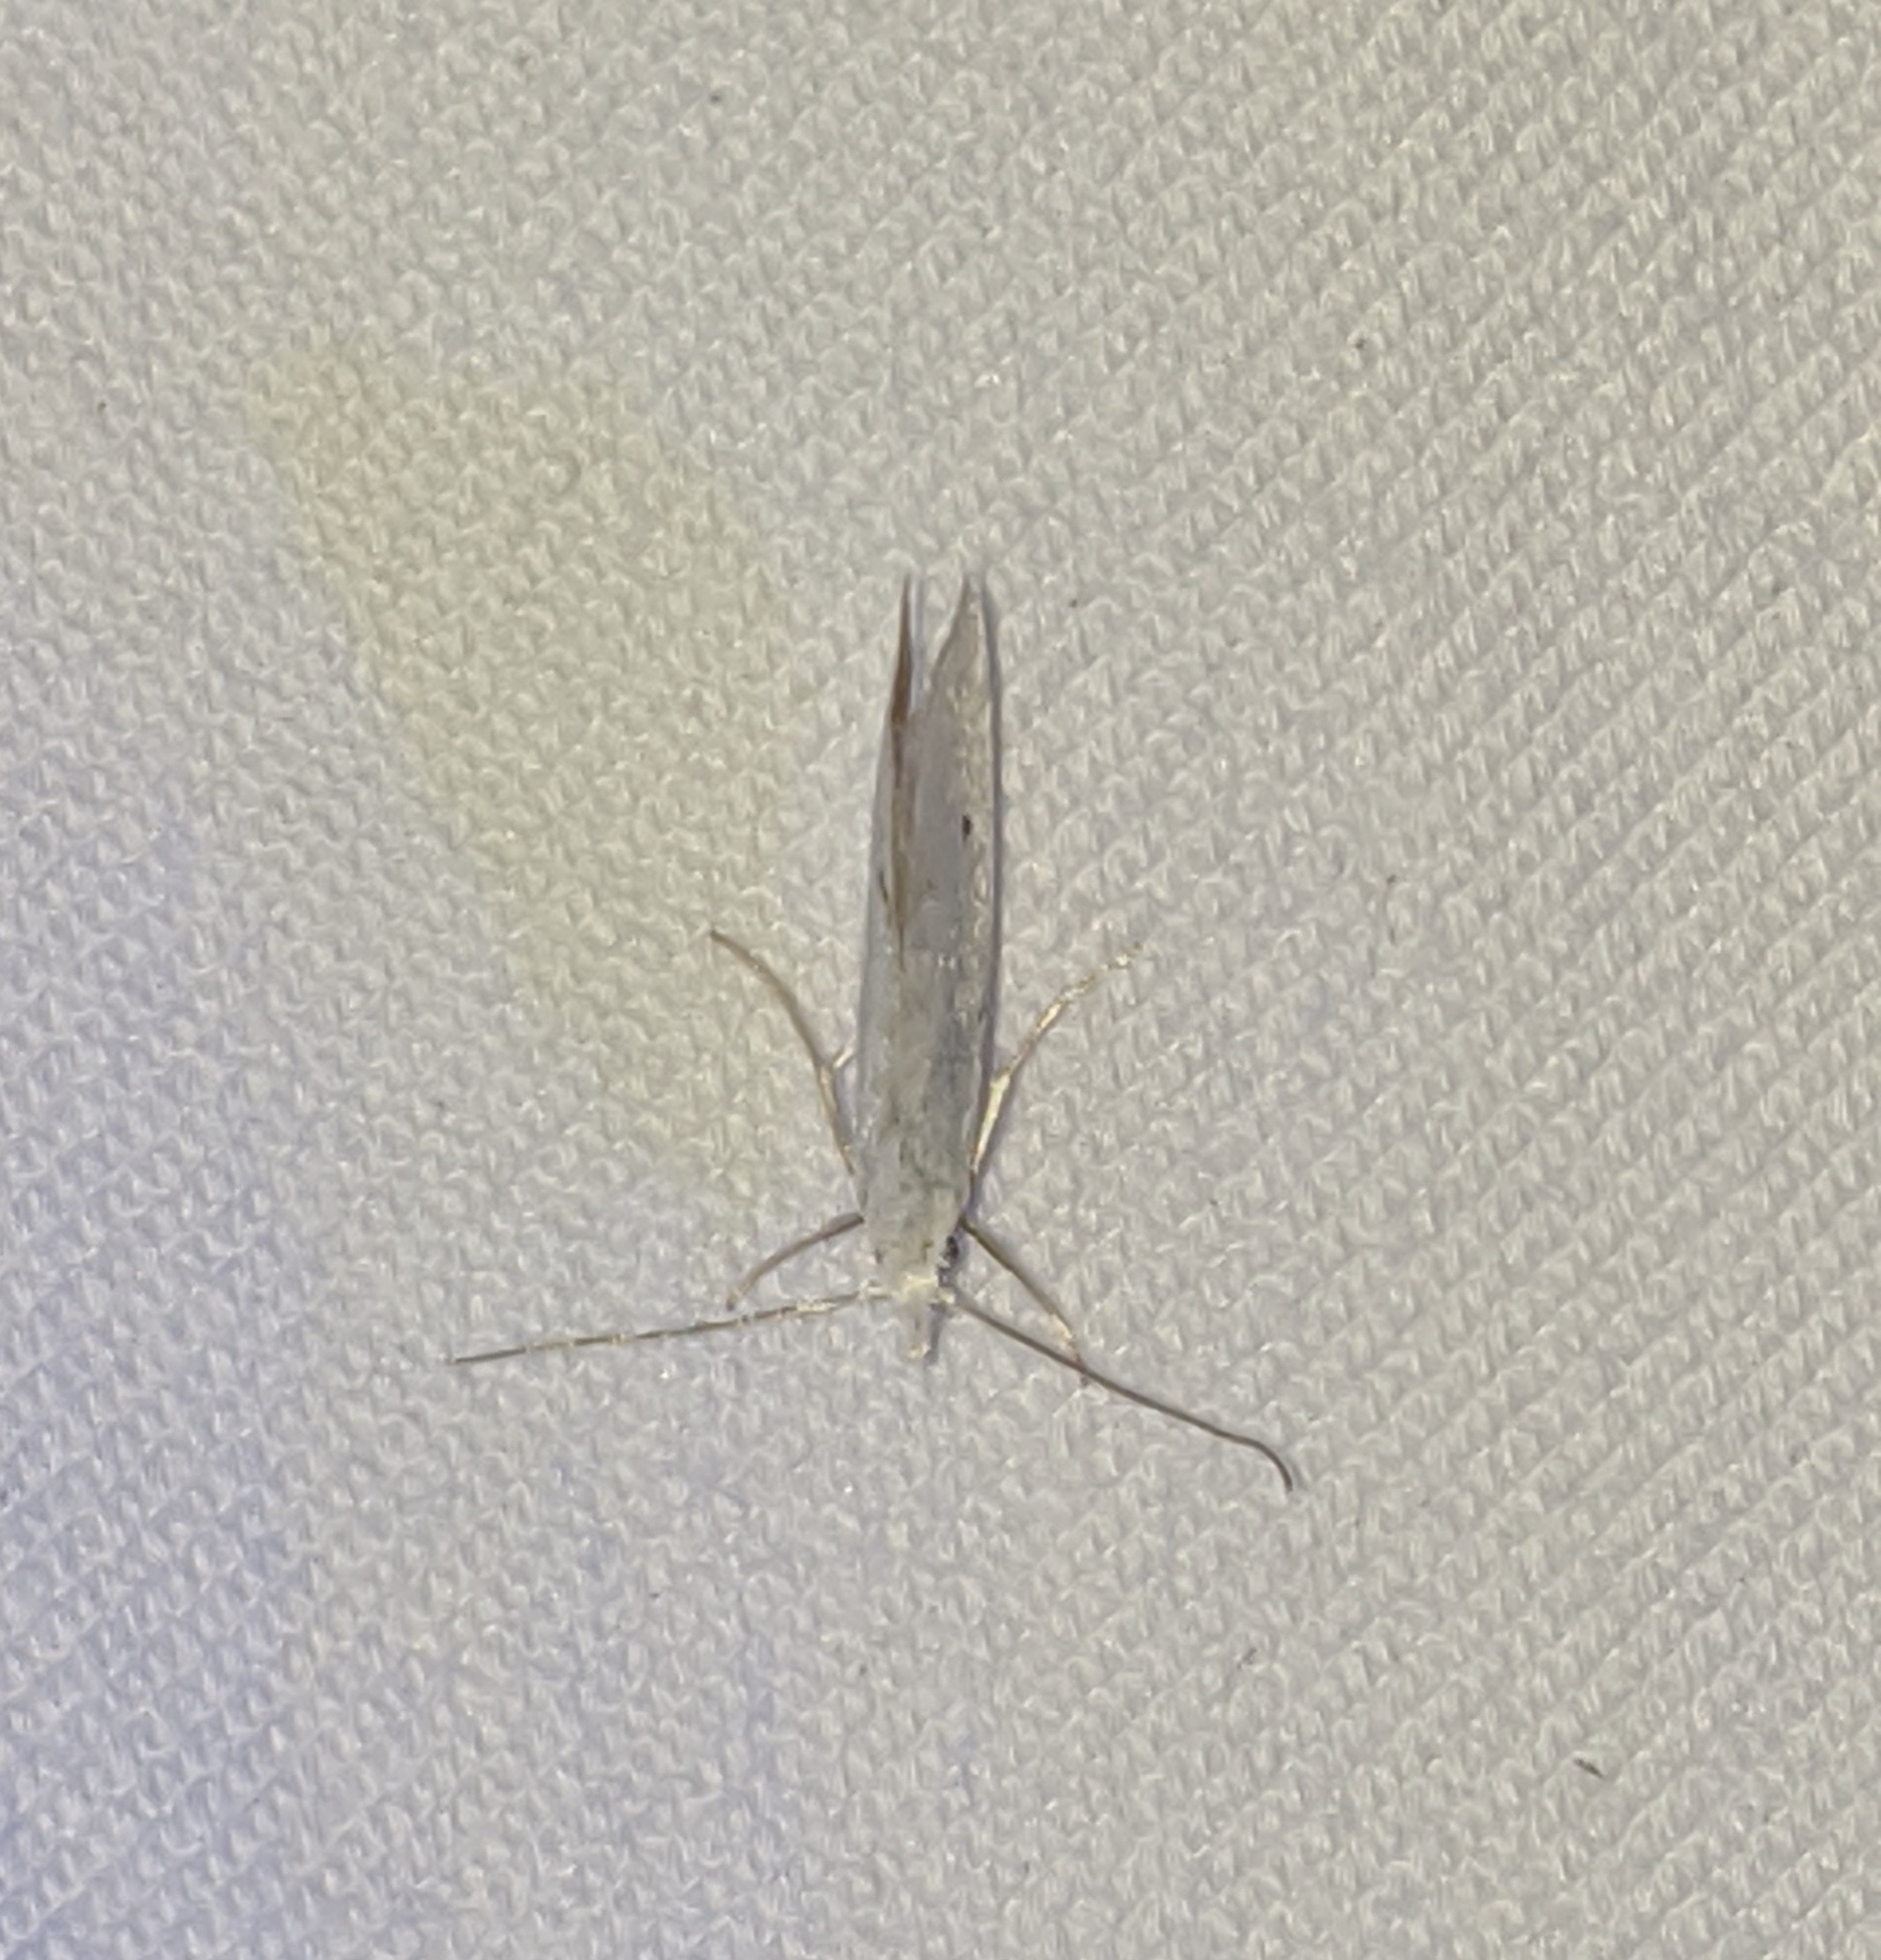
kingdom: Animalia
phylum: Arthropoda
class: Insecta
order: Lepidoptera
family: Yponomeutidae
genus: Eucalantica
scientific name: Eucalantica polita
